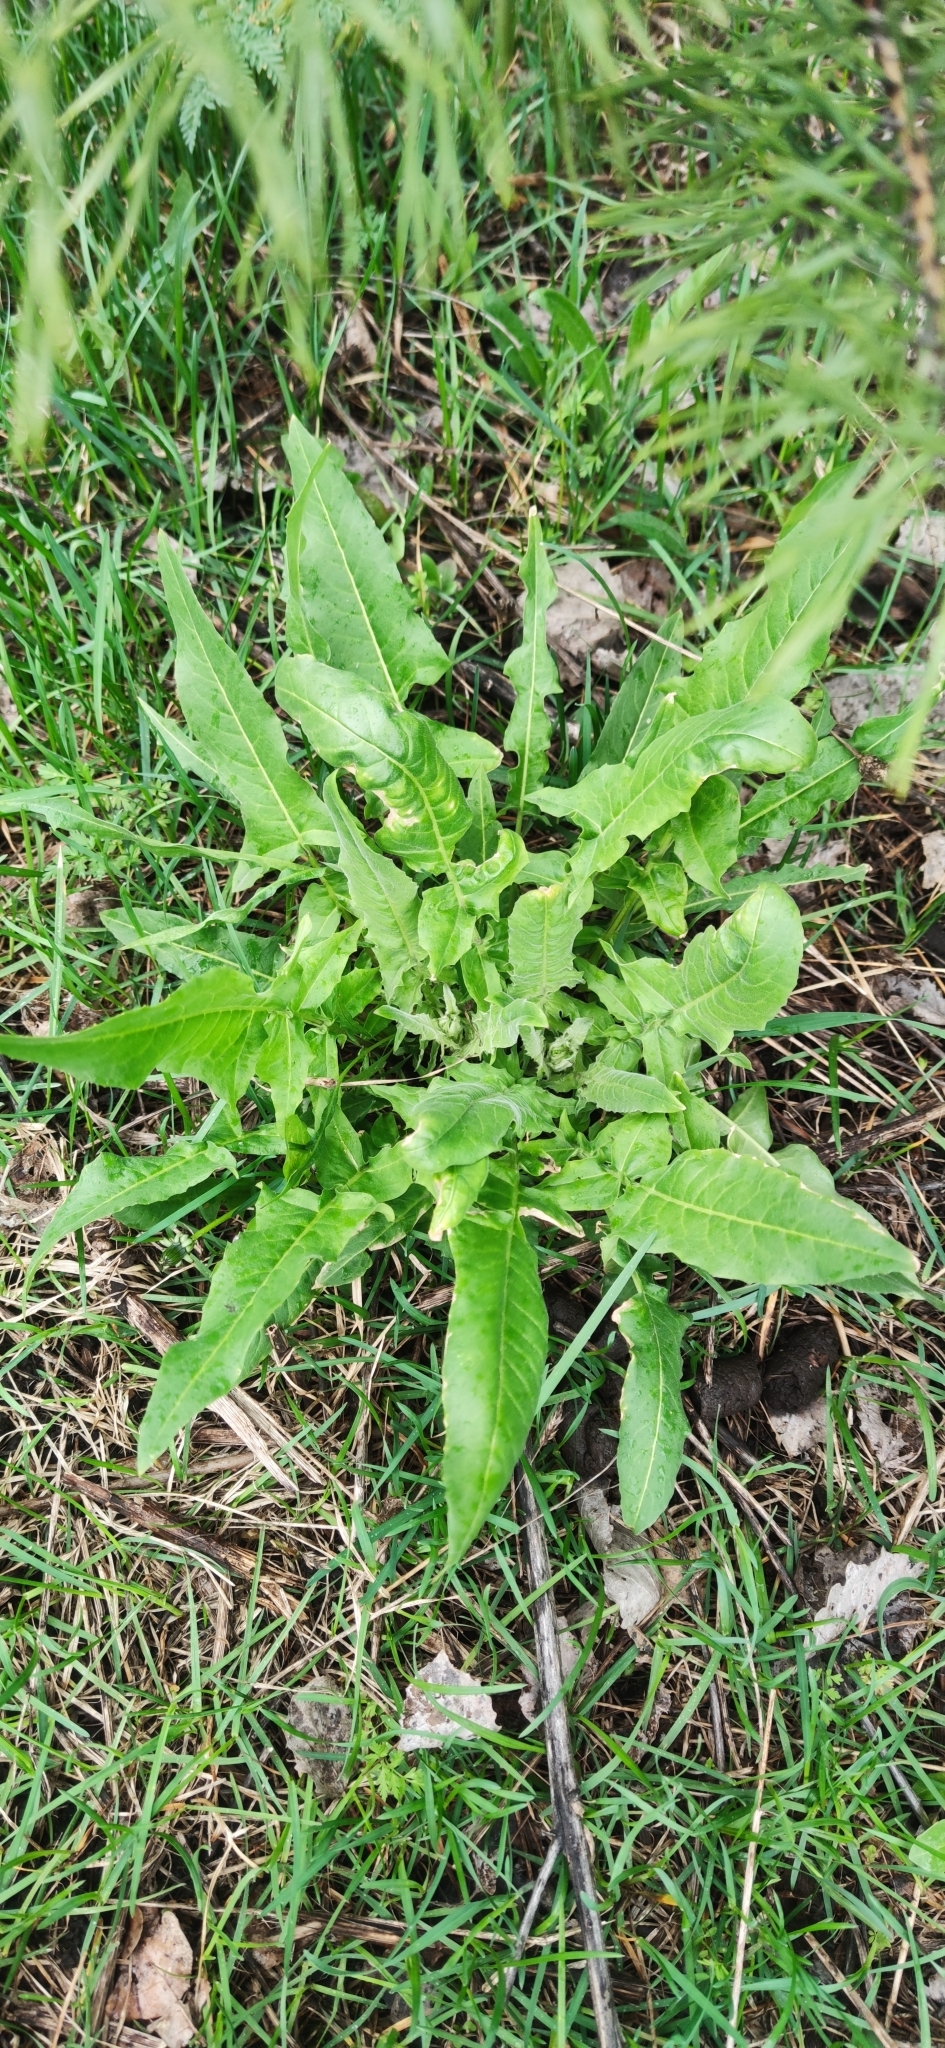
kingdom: Plantae
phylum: Tracheophyta
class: Magnoliopsida
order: Brassicales
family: Brassicaceae
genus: Bunias
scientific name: Bunias orientalis
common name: Warty-cabbage
